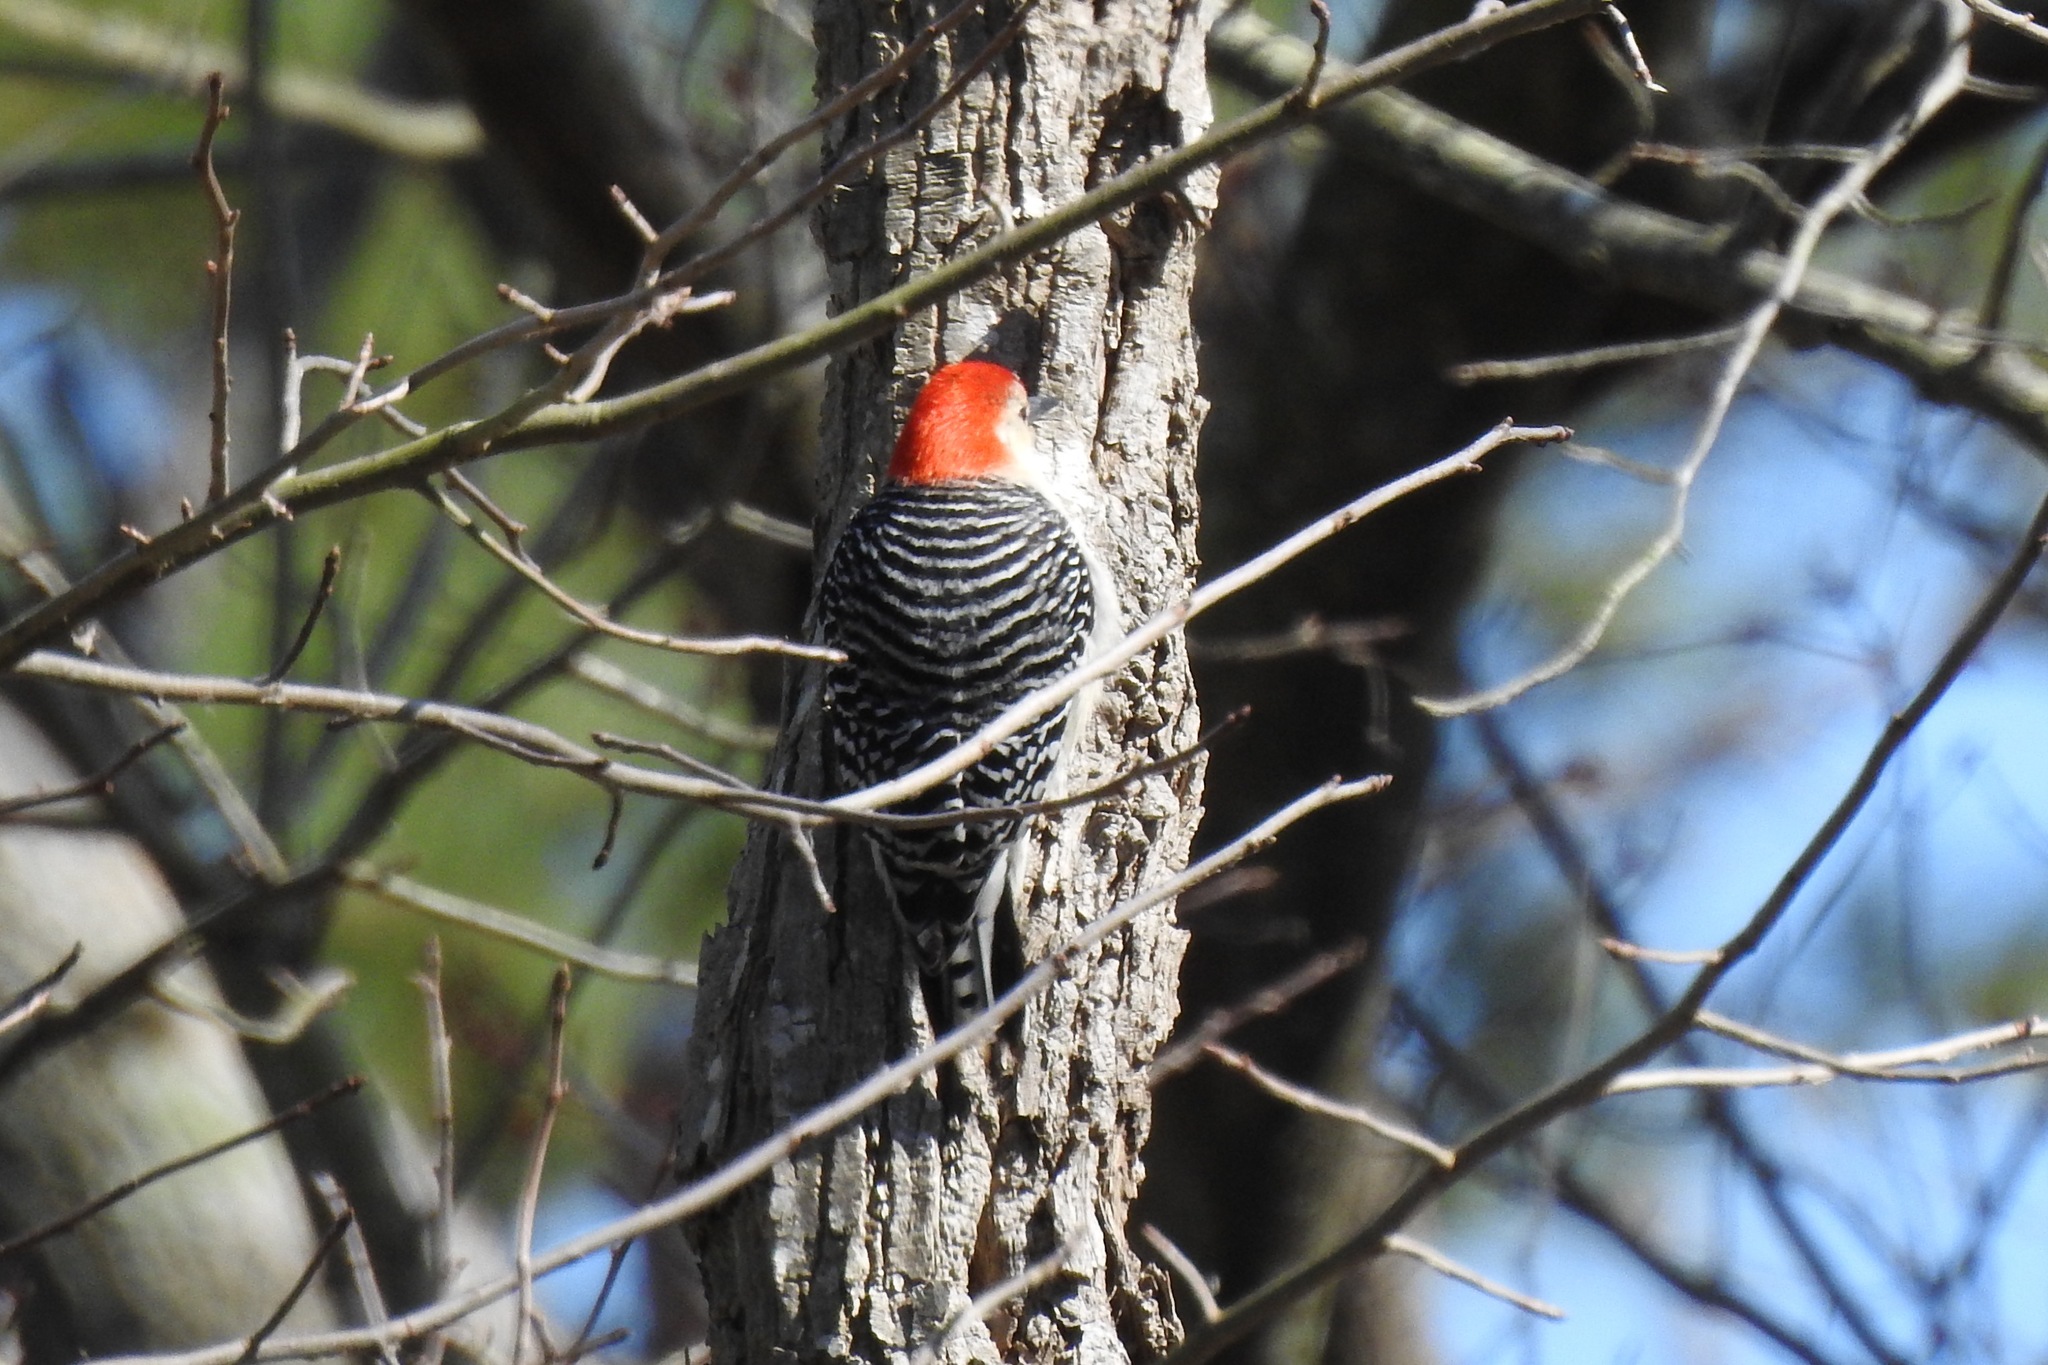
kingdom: Animalia
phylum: Chordata
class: Aves
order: Piciformes
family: Picidae
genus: Melanerpes
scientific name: Melanerpes carolinus
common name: Red-bellied woodpecker
